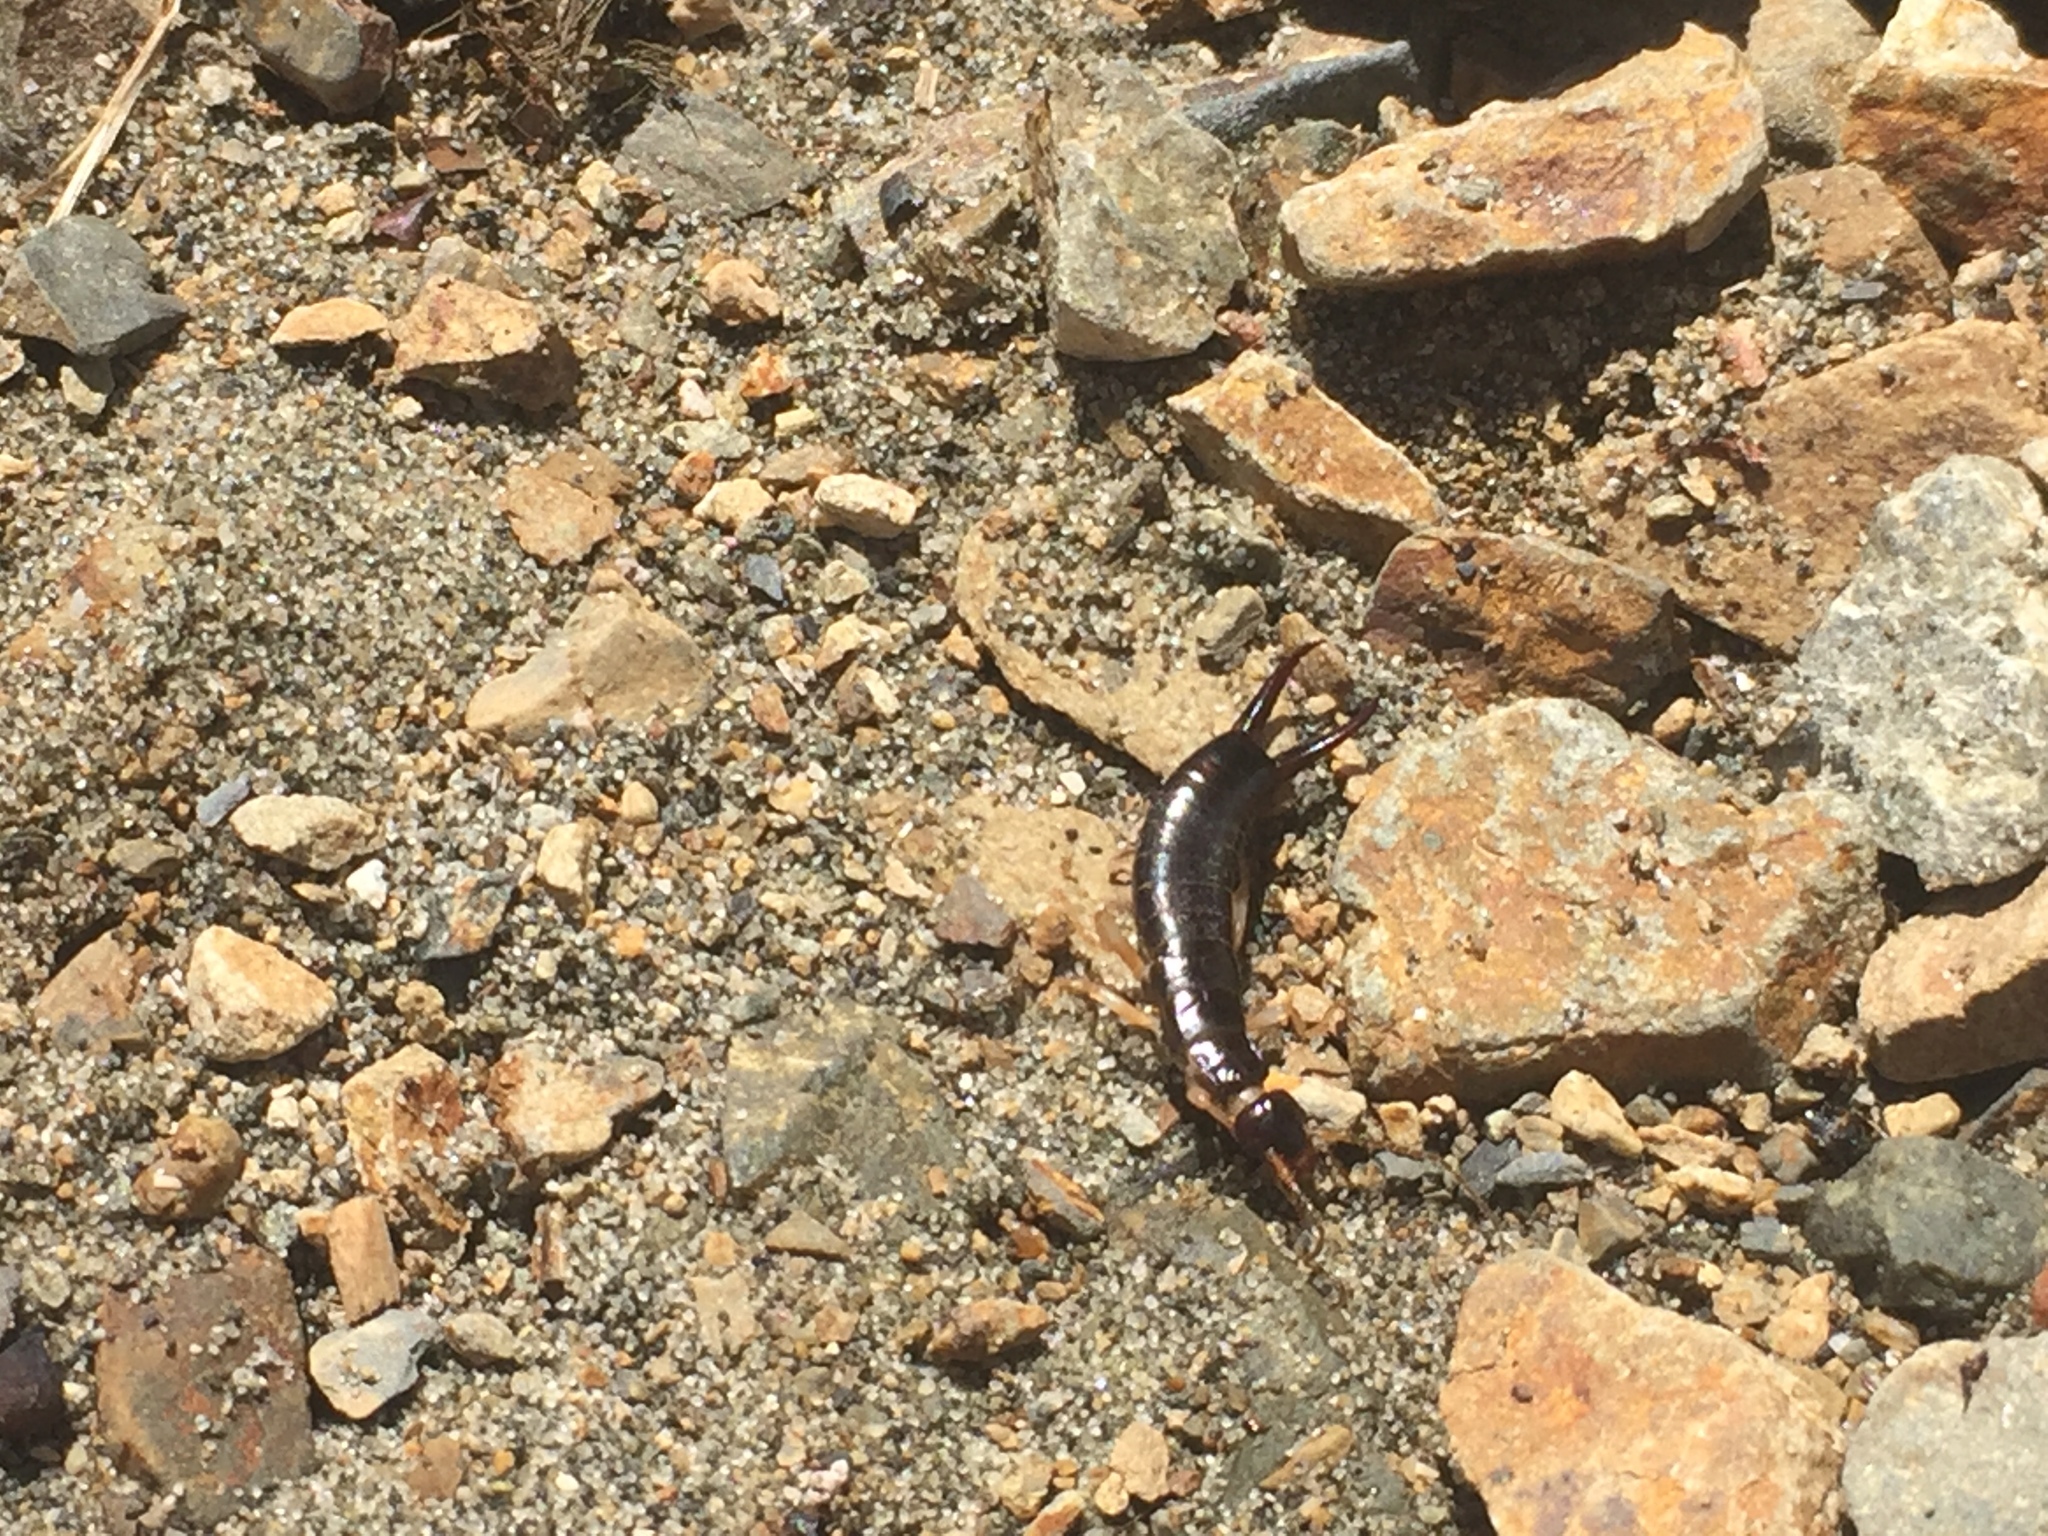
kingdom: Animalia
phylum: Arthropoda
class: Insecta
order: Dermaptera
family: Anisolabididae
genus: Anisolabis
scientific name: Anisolabis littorea
